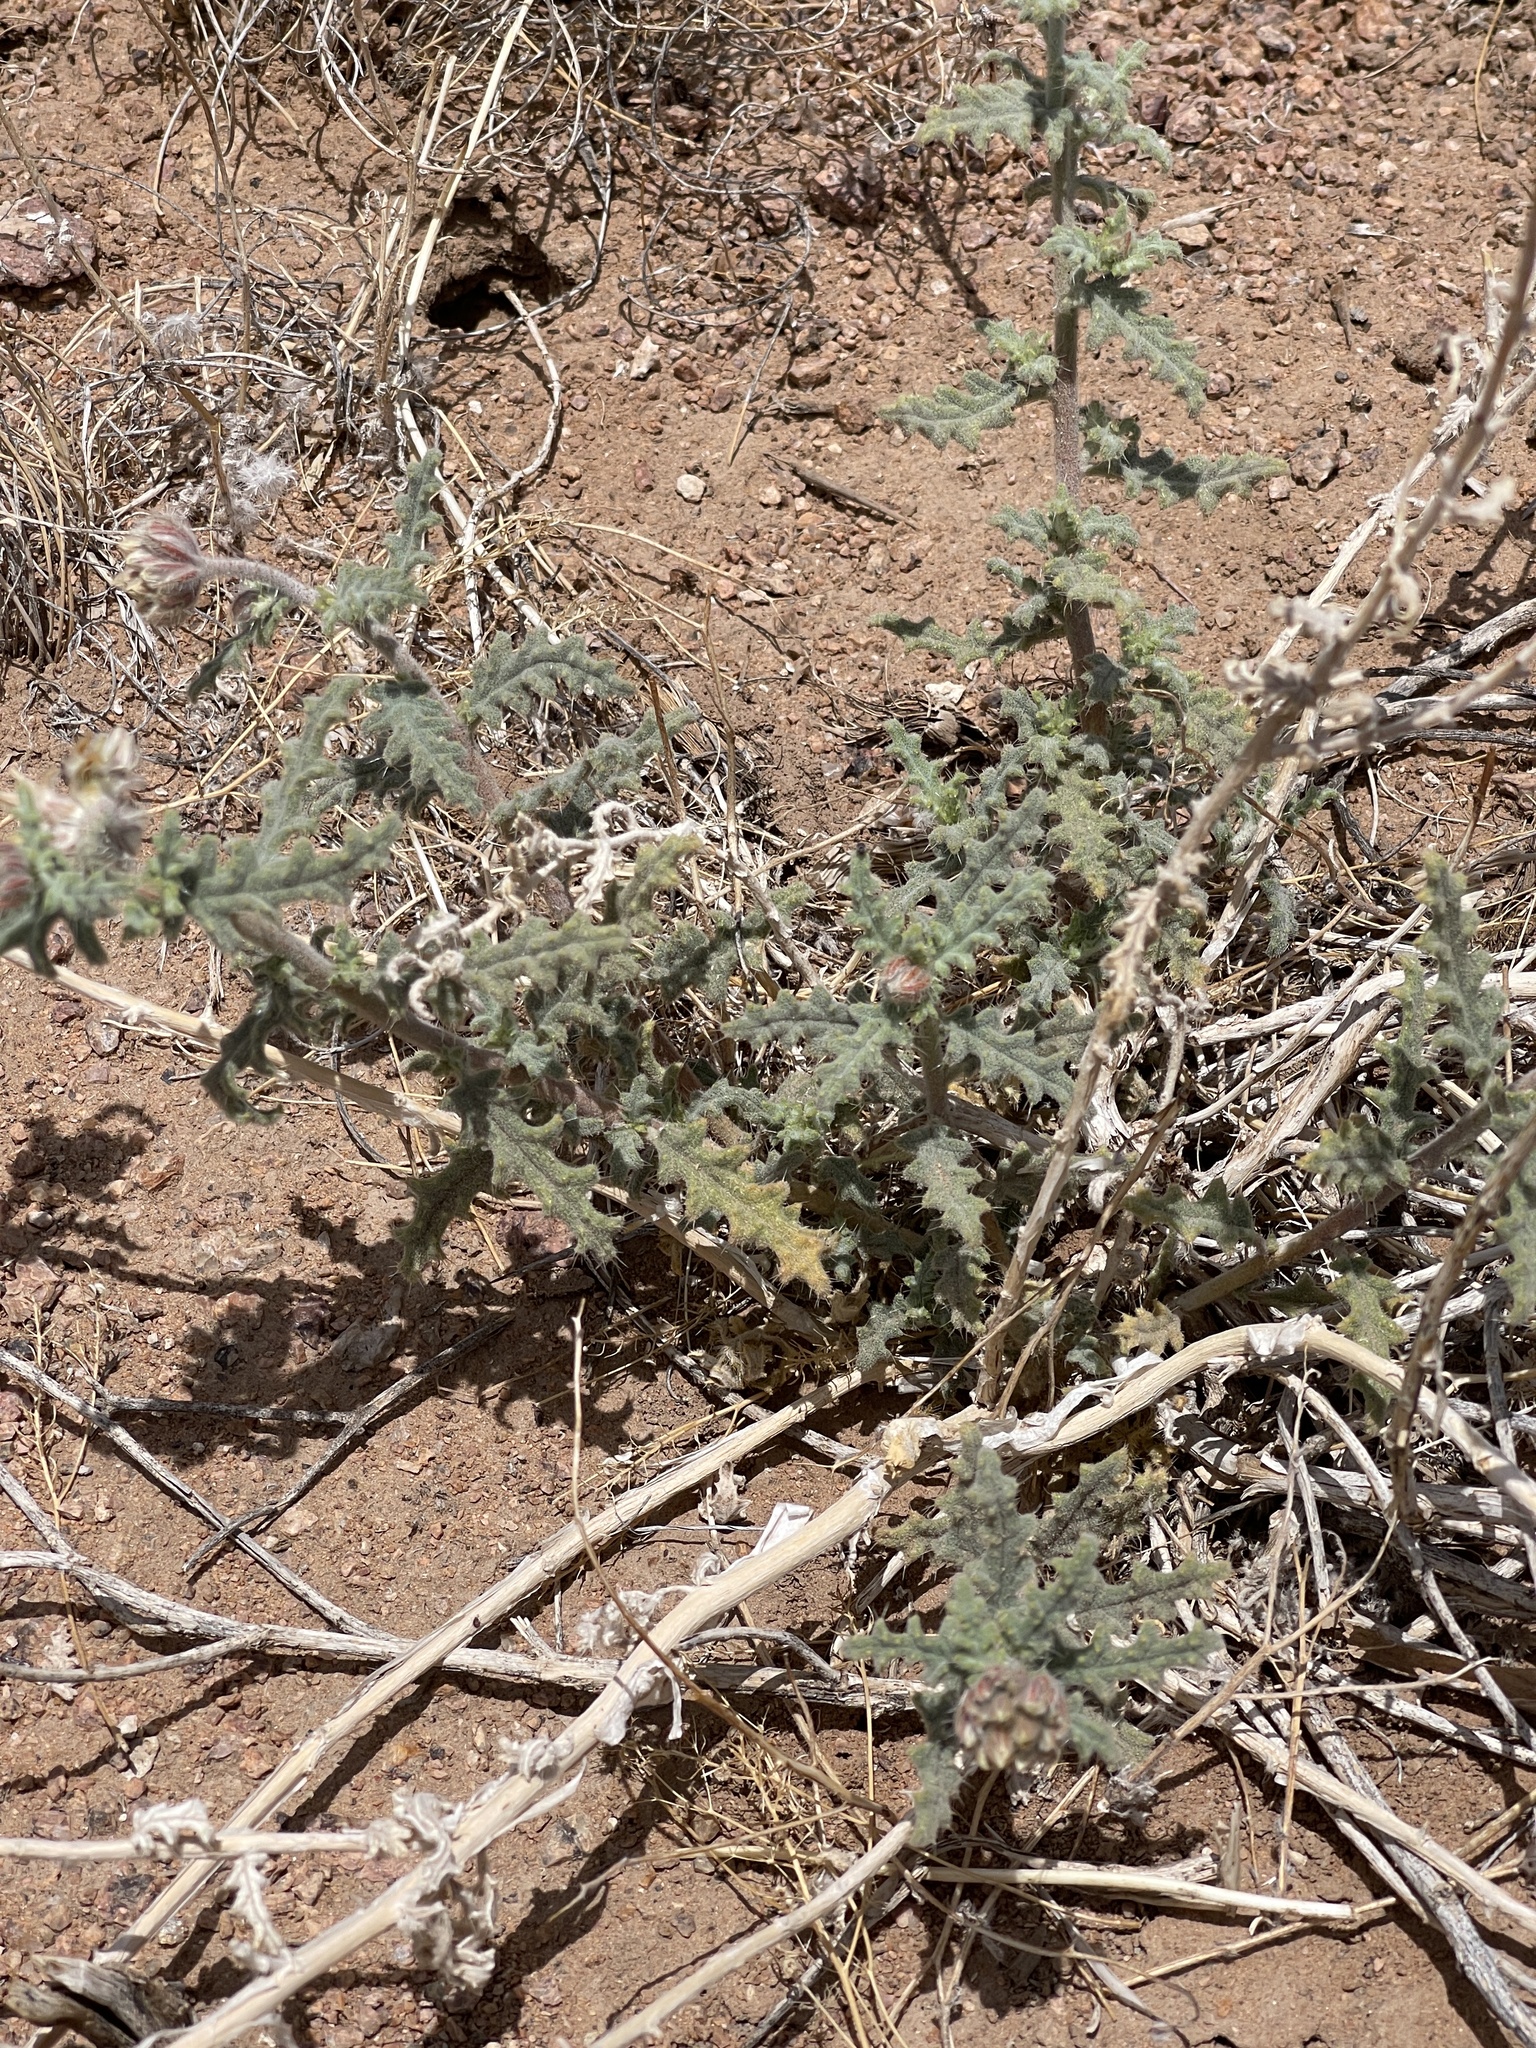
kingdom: Plantae
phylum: Tracheophyta
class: Magnoliopsida
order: Cornales
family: Loasaceae
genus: Cevallia
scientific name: Cevallia sinuata
